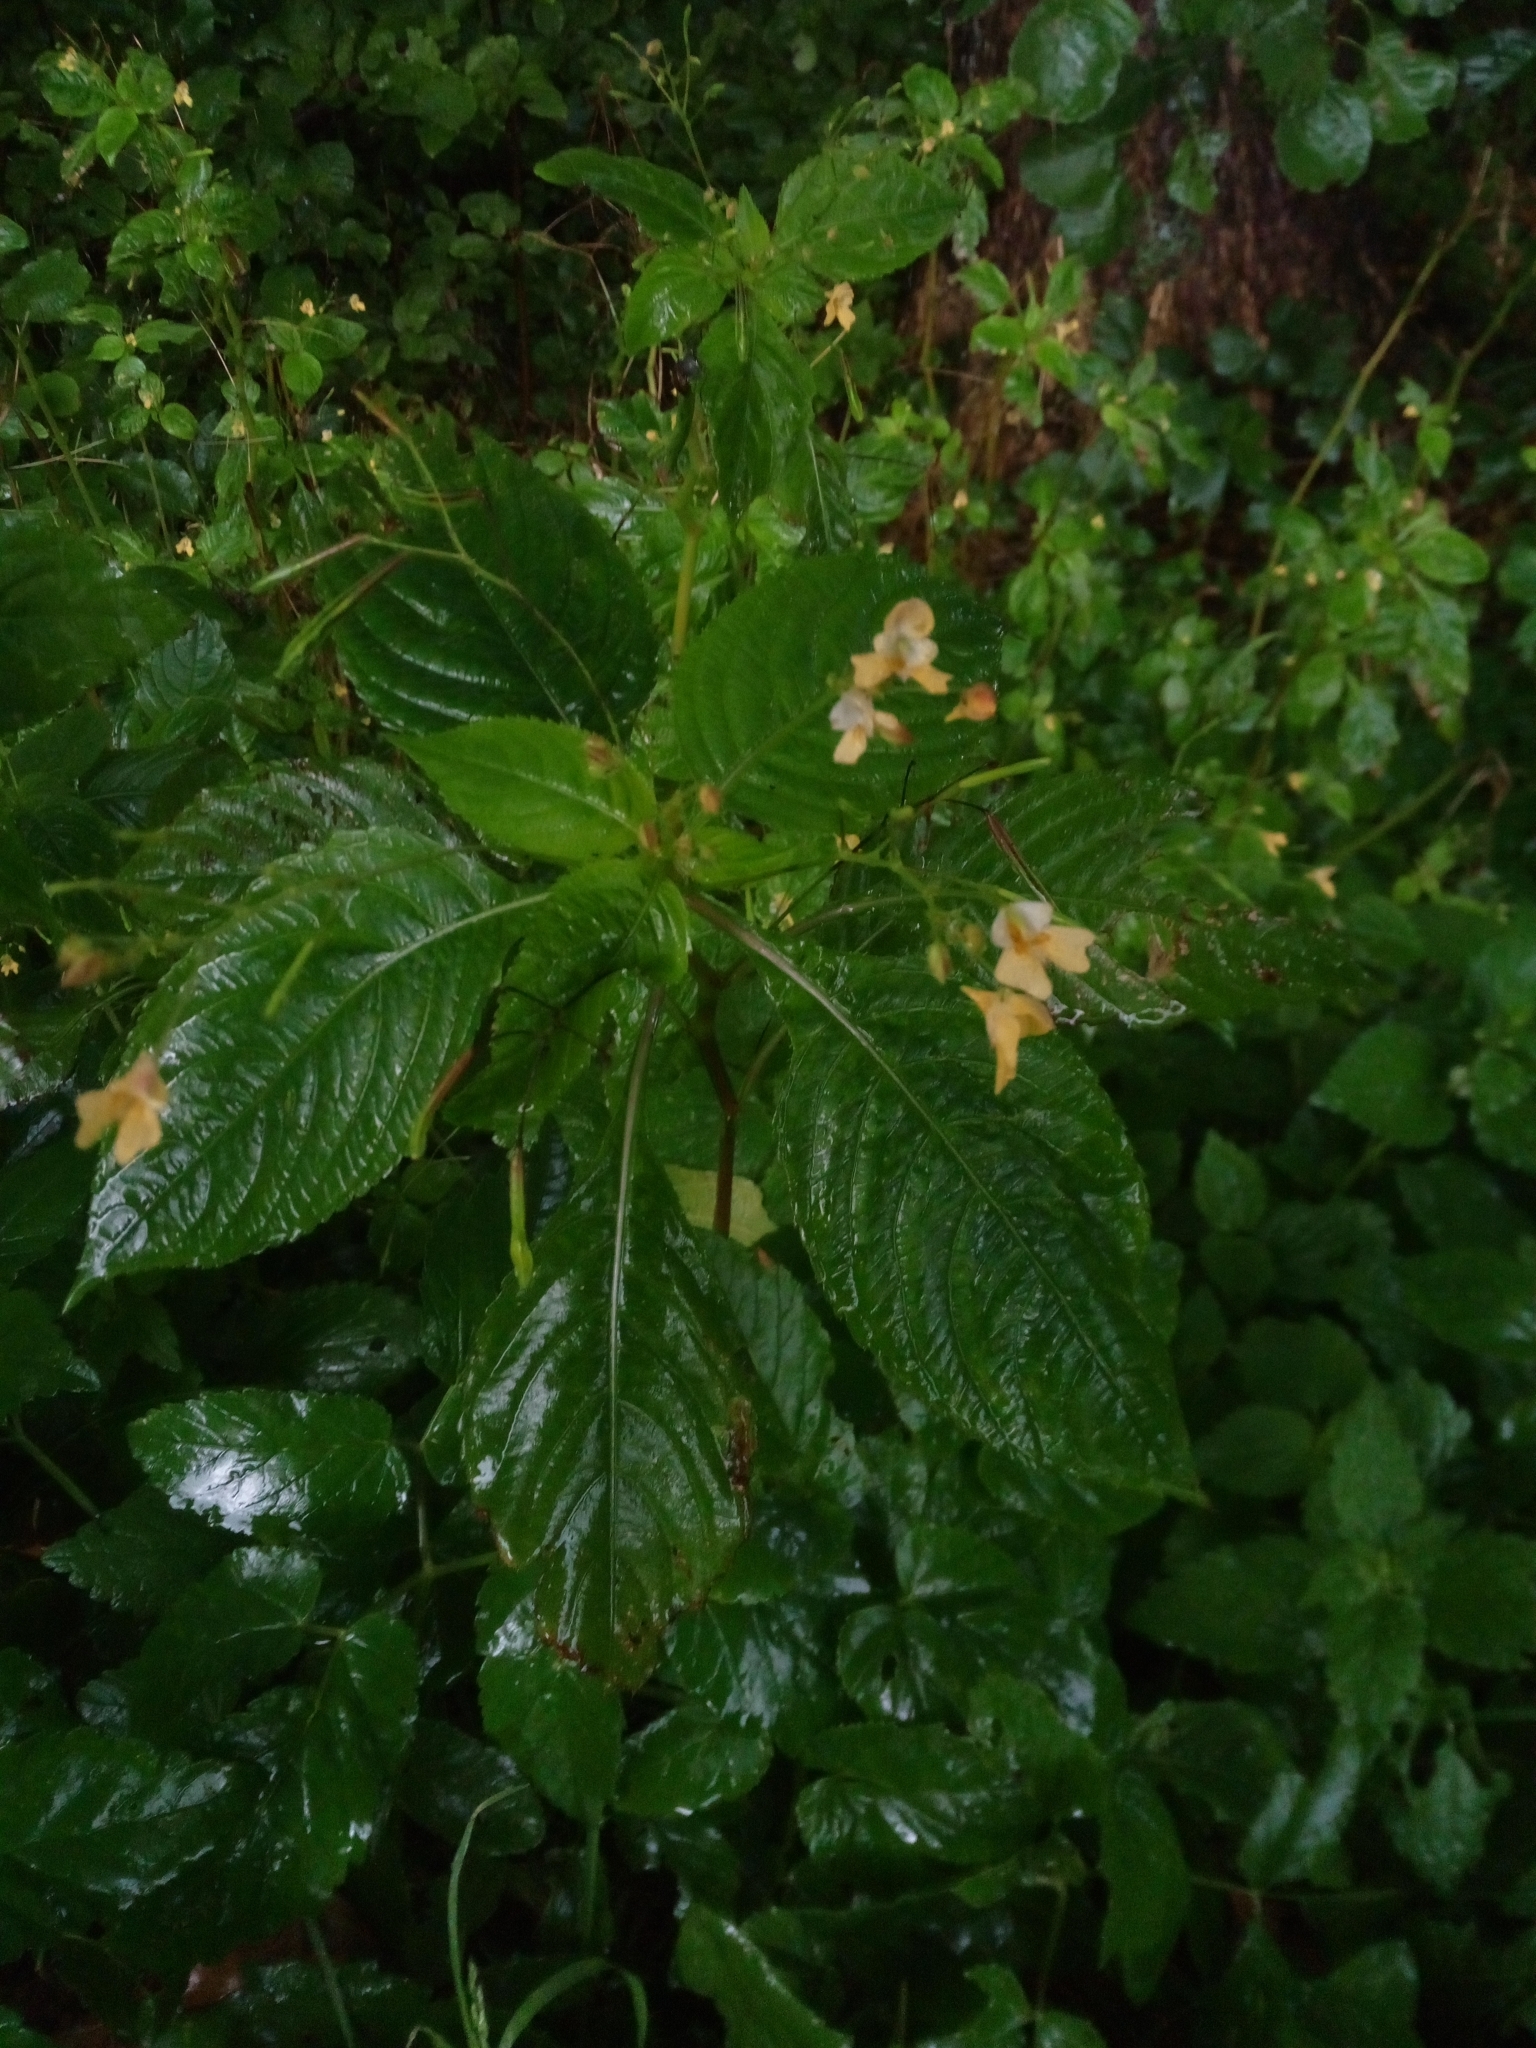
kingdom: Plantae
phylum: Tracheophyta
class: Magnoliopsida
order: Ericales
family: Balsaminaceae
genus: Impatiens
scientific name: Impatiens parviflora
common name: Small balsam
